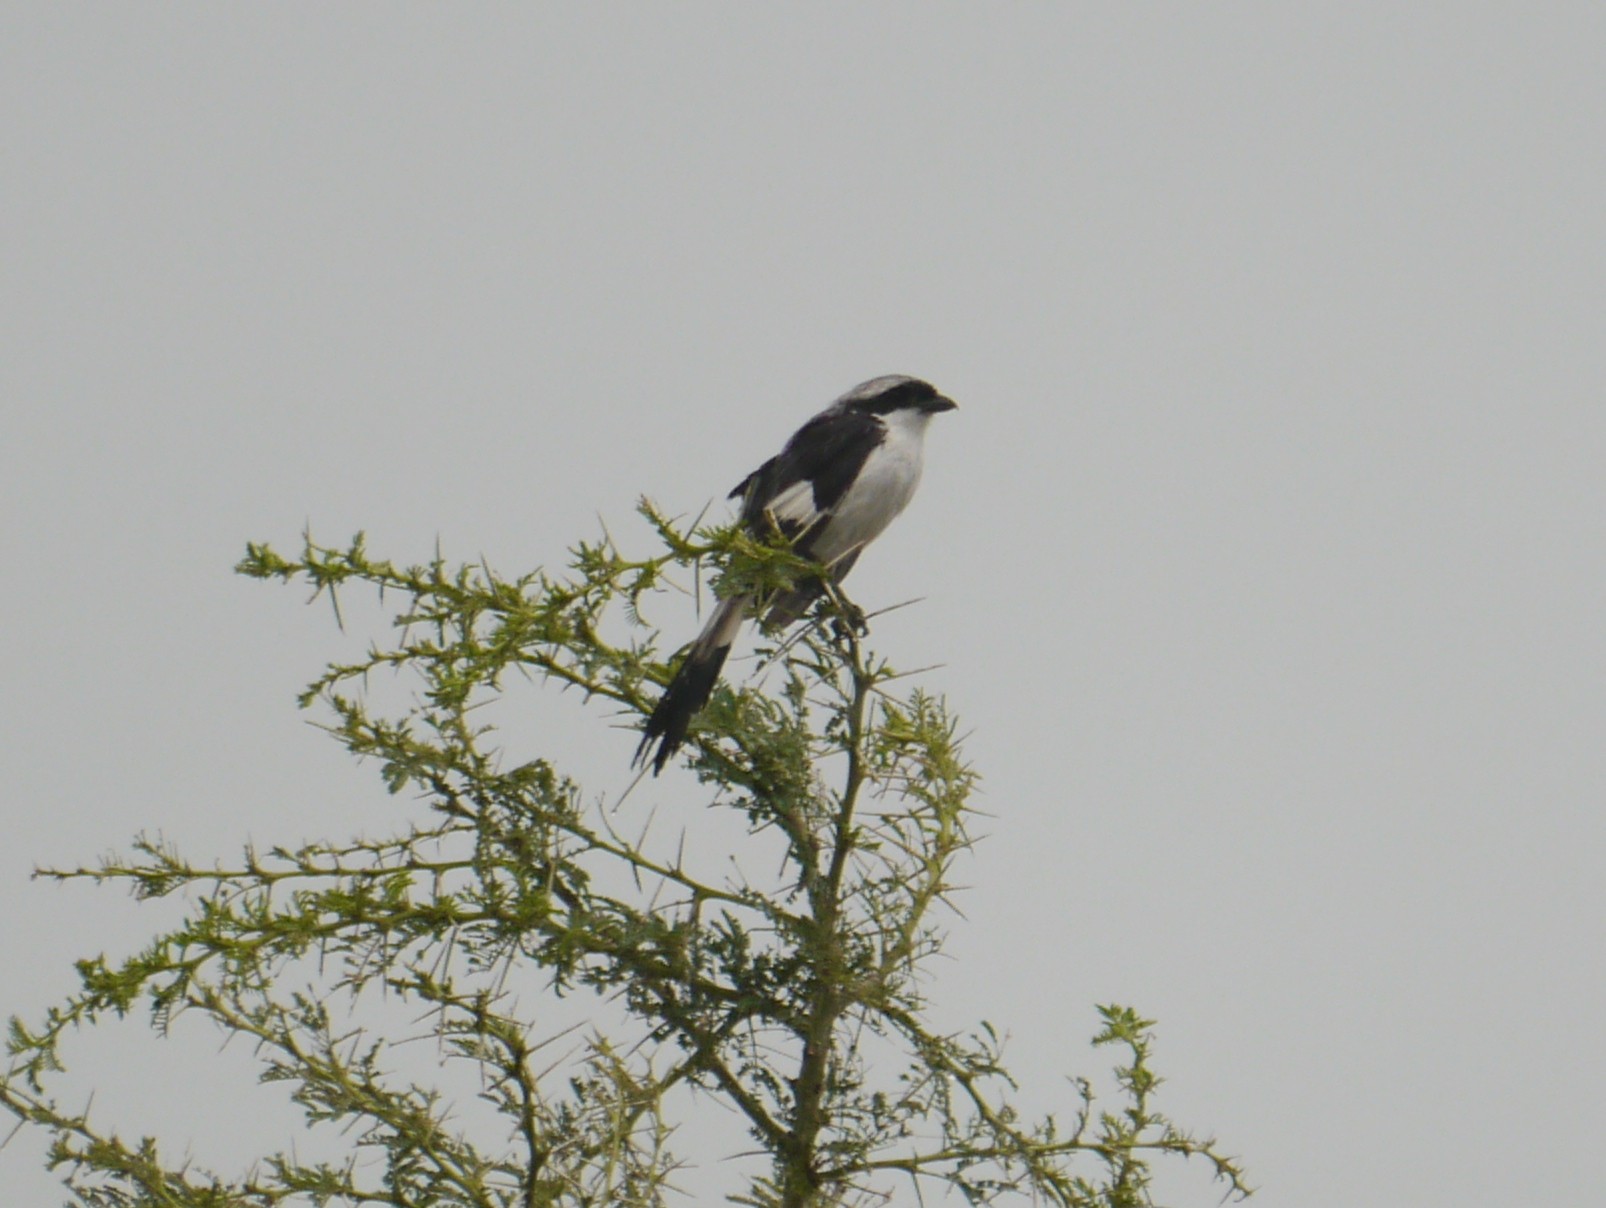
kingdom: Animalia
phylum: Chordata
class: Aves
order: Passeriformes
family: Laniidae
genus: Lanius
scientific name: Lanius excubitoroides
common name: Grey-backed fiscal
